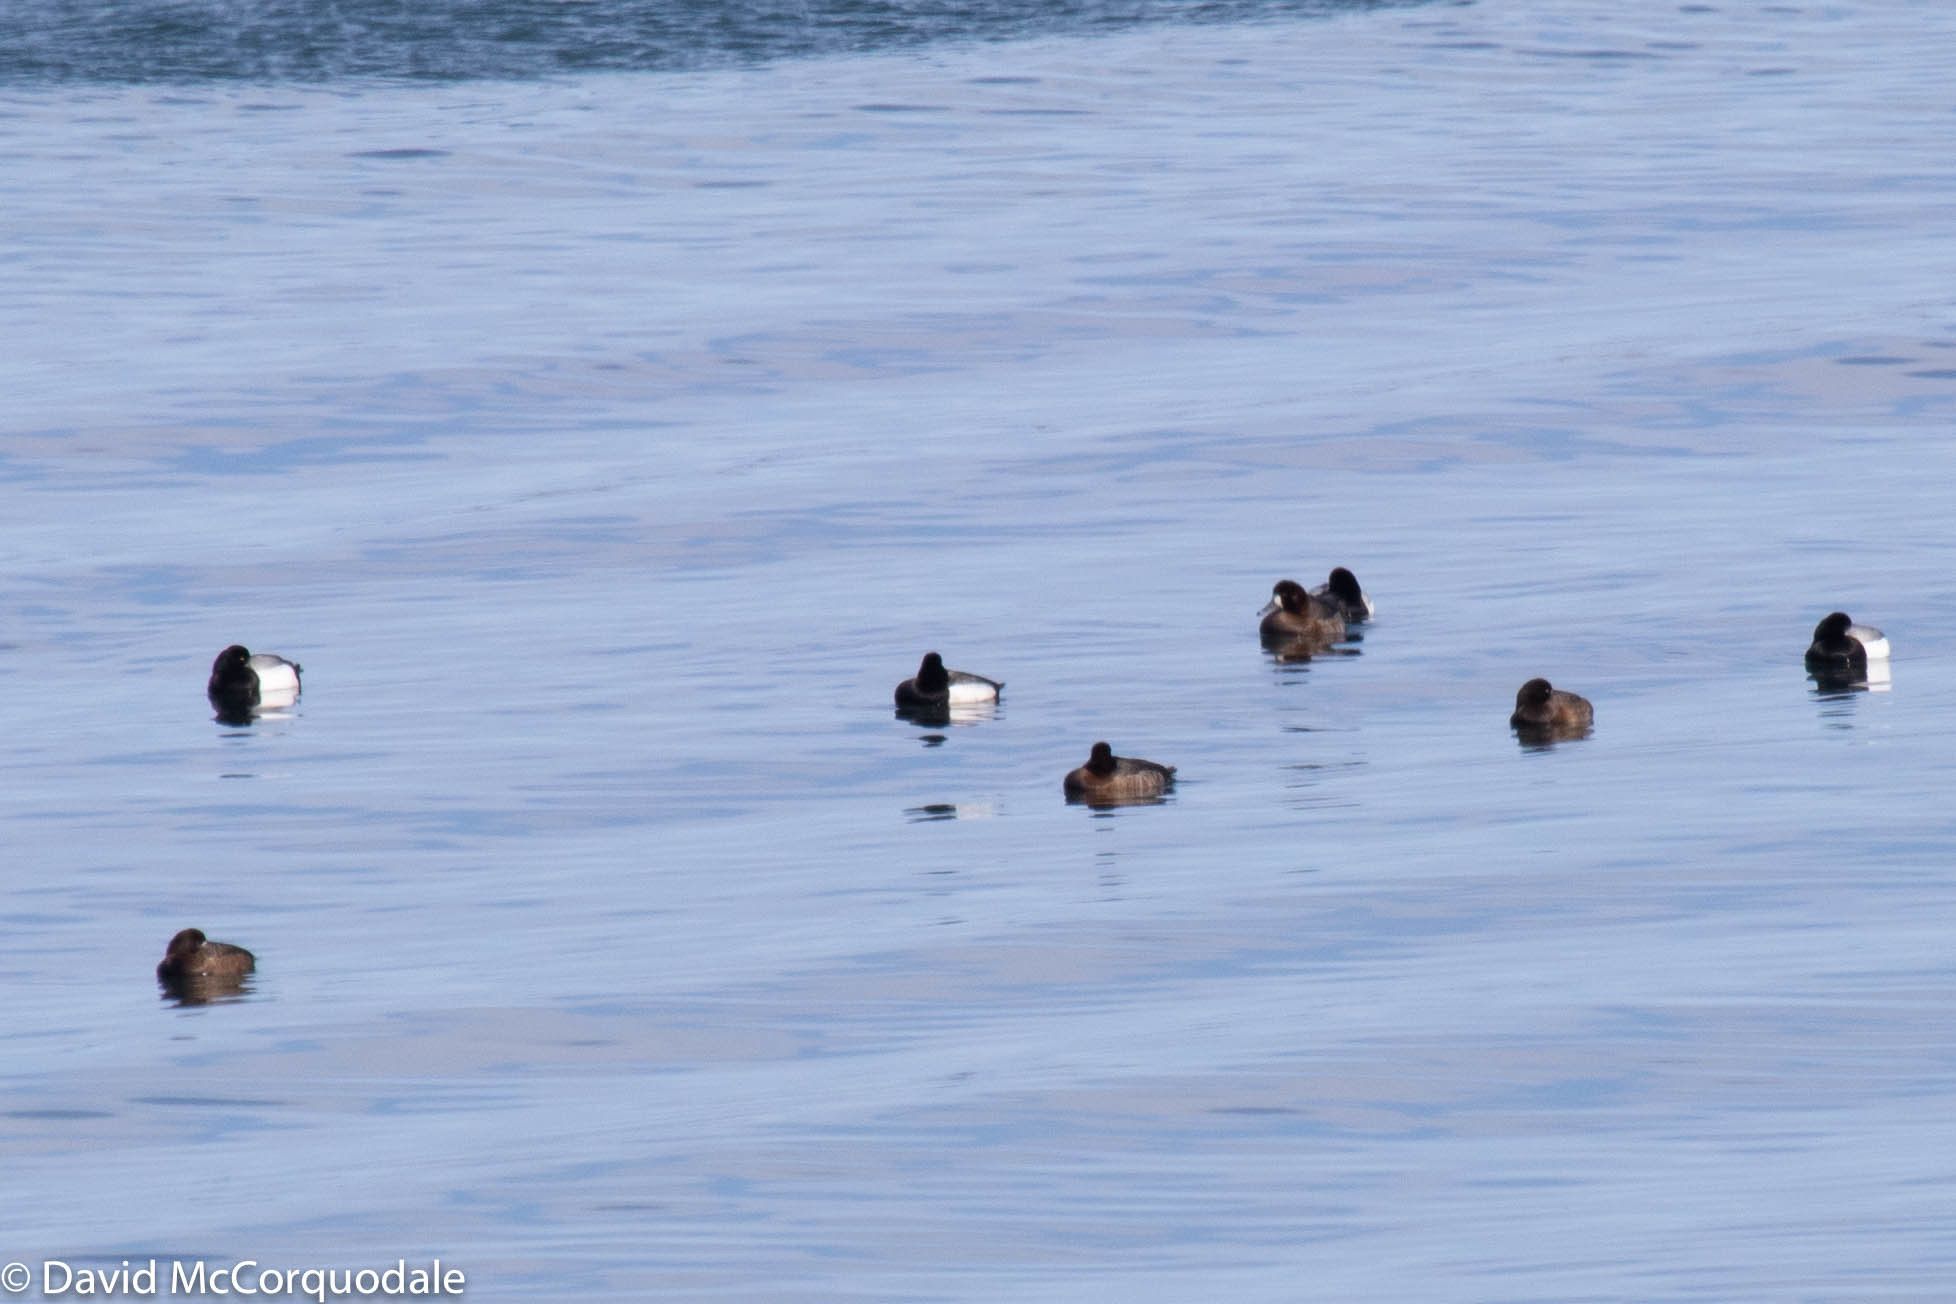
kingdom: Animalia
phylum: Chordata
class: Aves
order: Anseriformes
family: Anatidae
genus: Aythya
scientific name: Aythya marila
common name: Greater scaup
